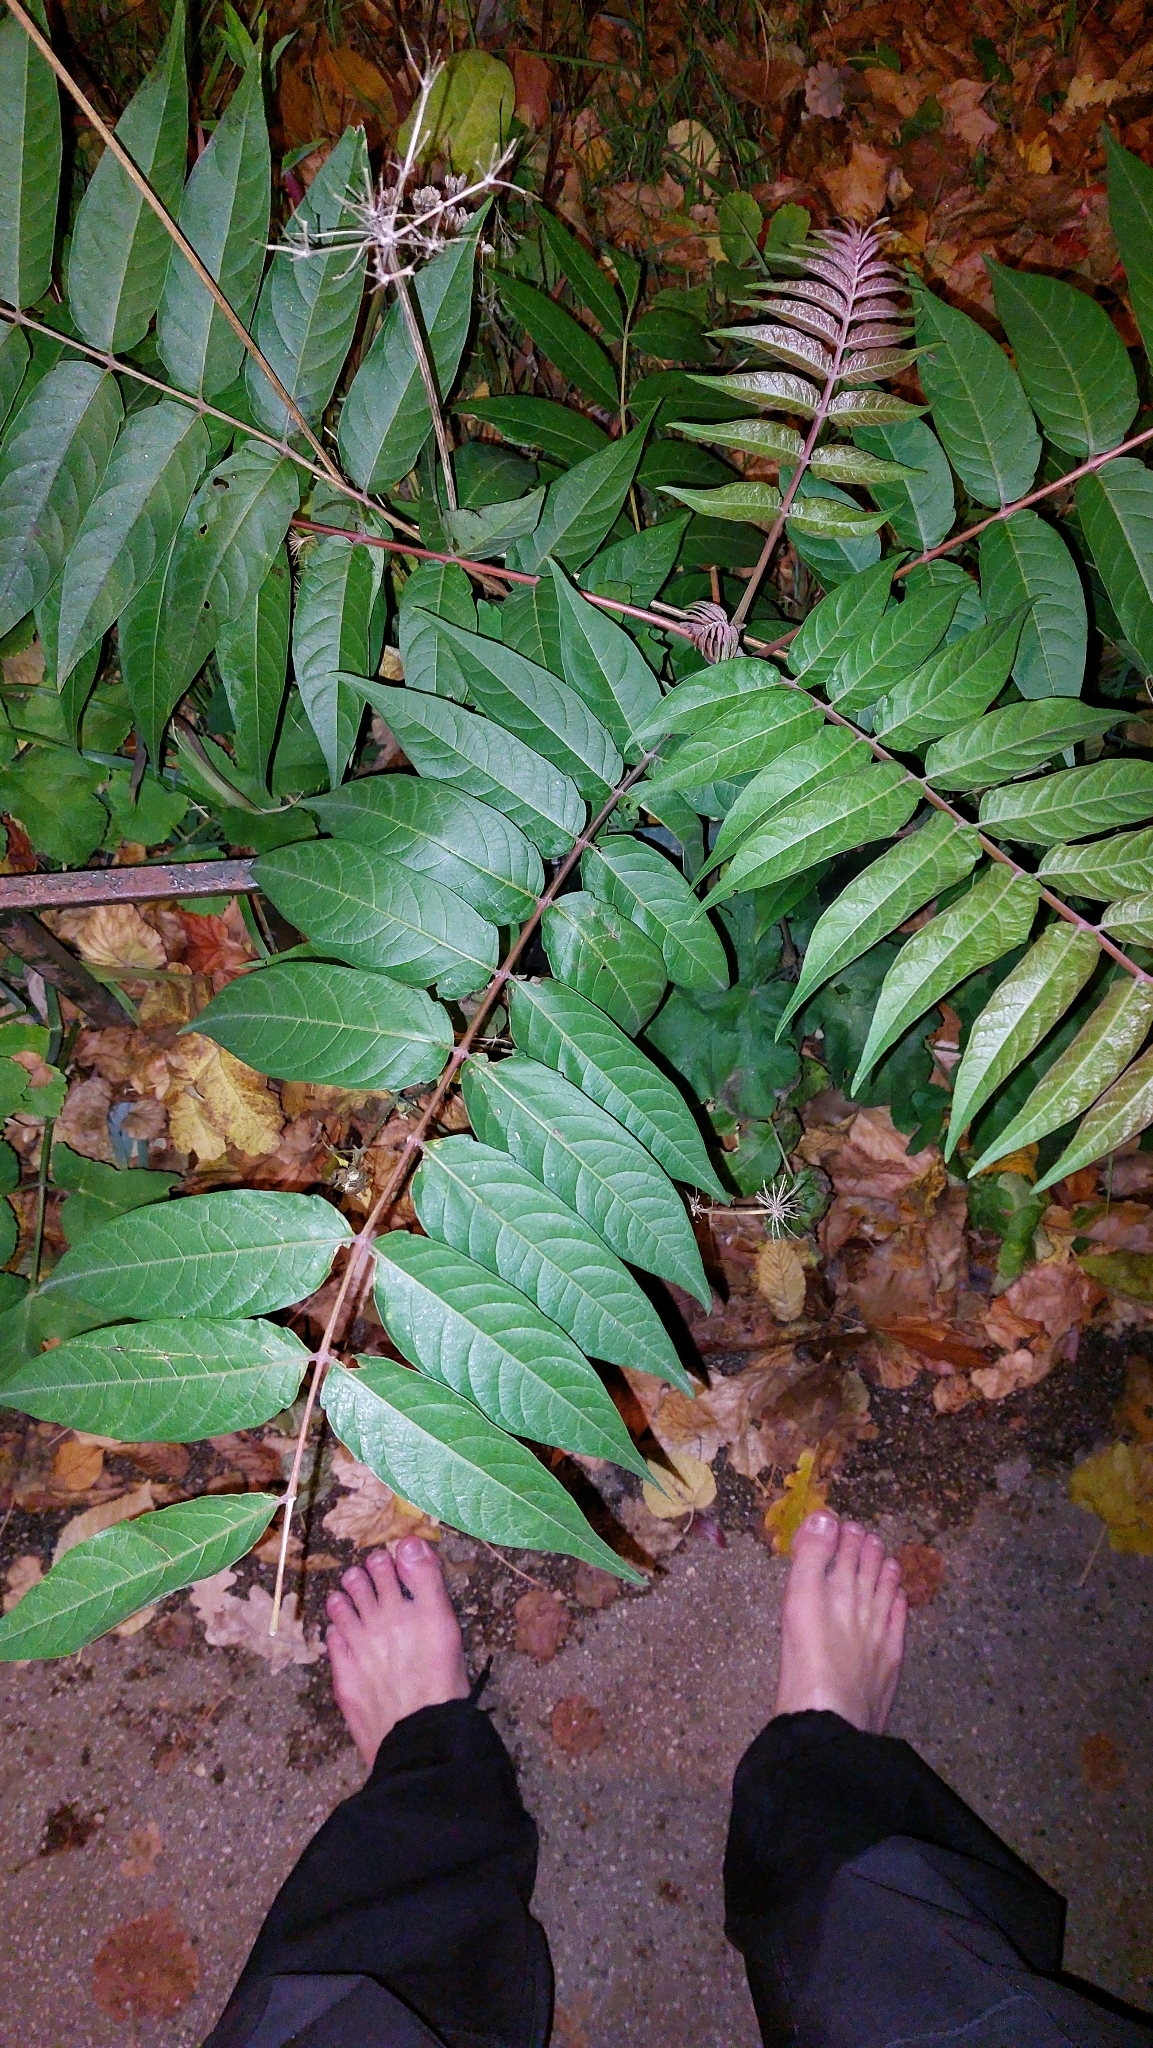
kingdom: Plantae
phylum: Tracheophyta
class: Magnoliopsida
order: Sapindales
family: Simaroubaceae
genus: Ailanthus
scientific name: Ailanthus altissima
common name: Tree-of-heaven
